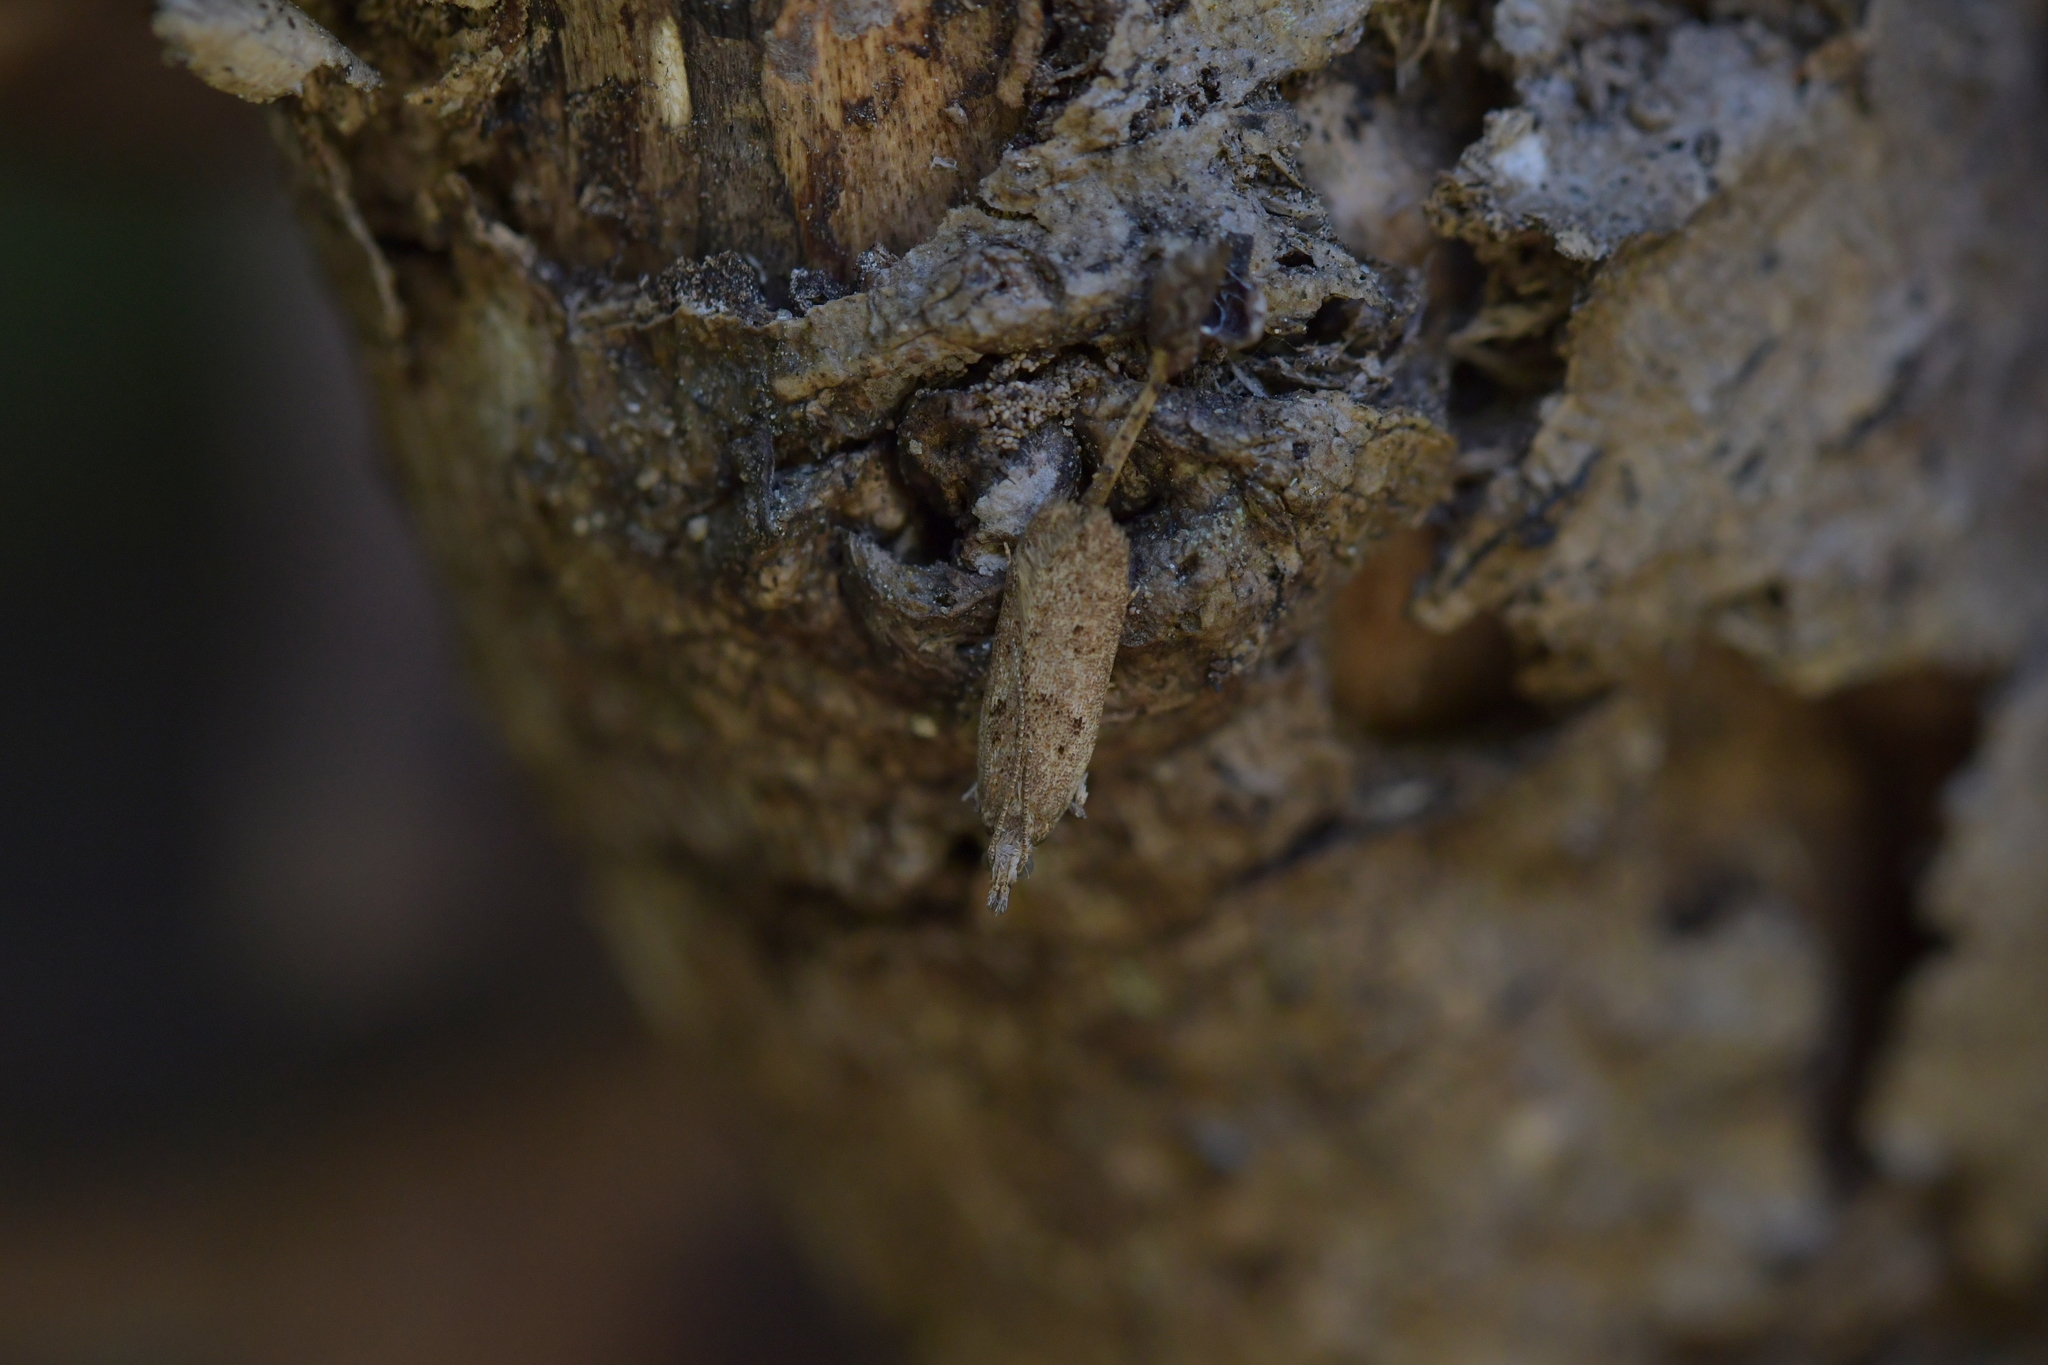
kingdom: Animalia
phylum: Arthropoda
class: Insecta
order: Lepidoptera
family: Oecophoridae
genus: Thamnosara
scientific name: Thamnosara sublitella
